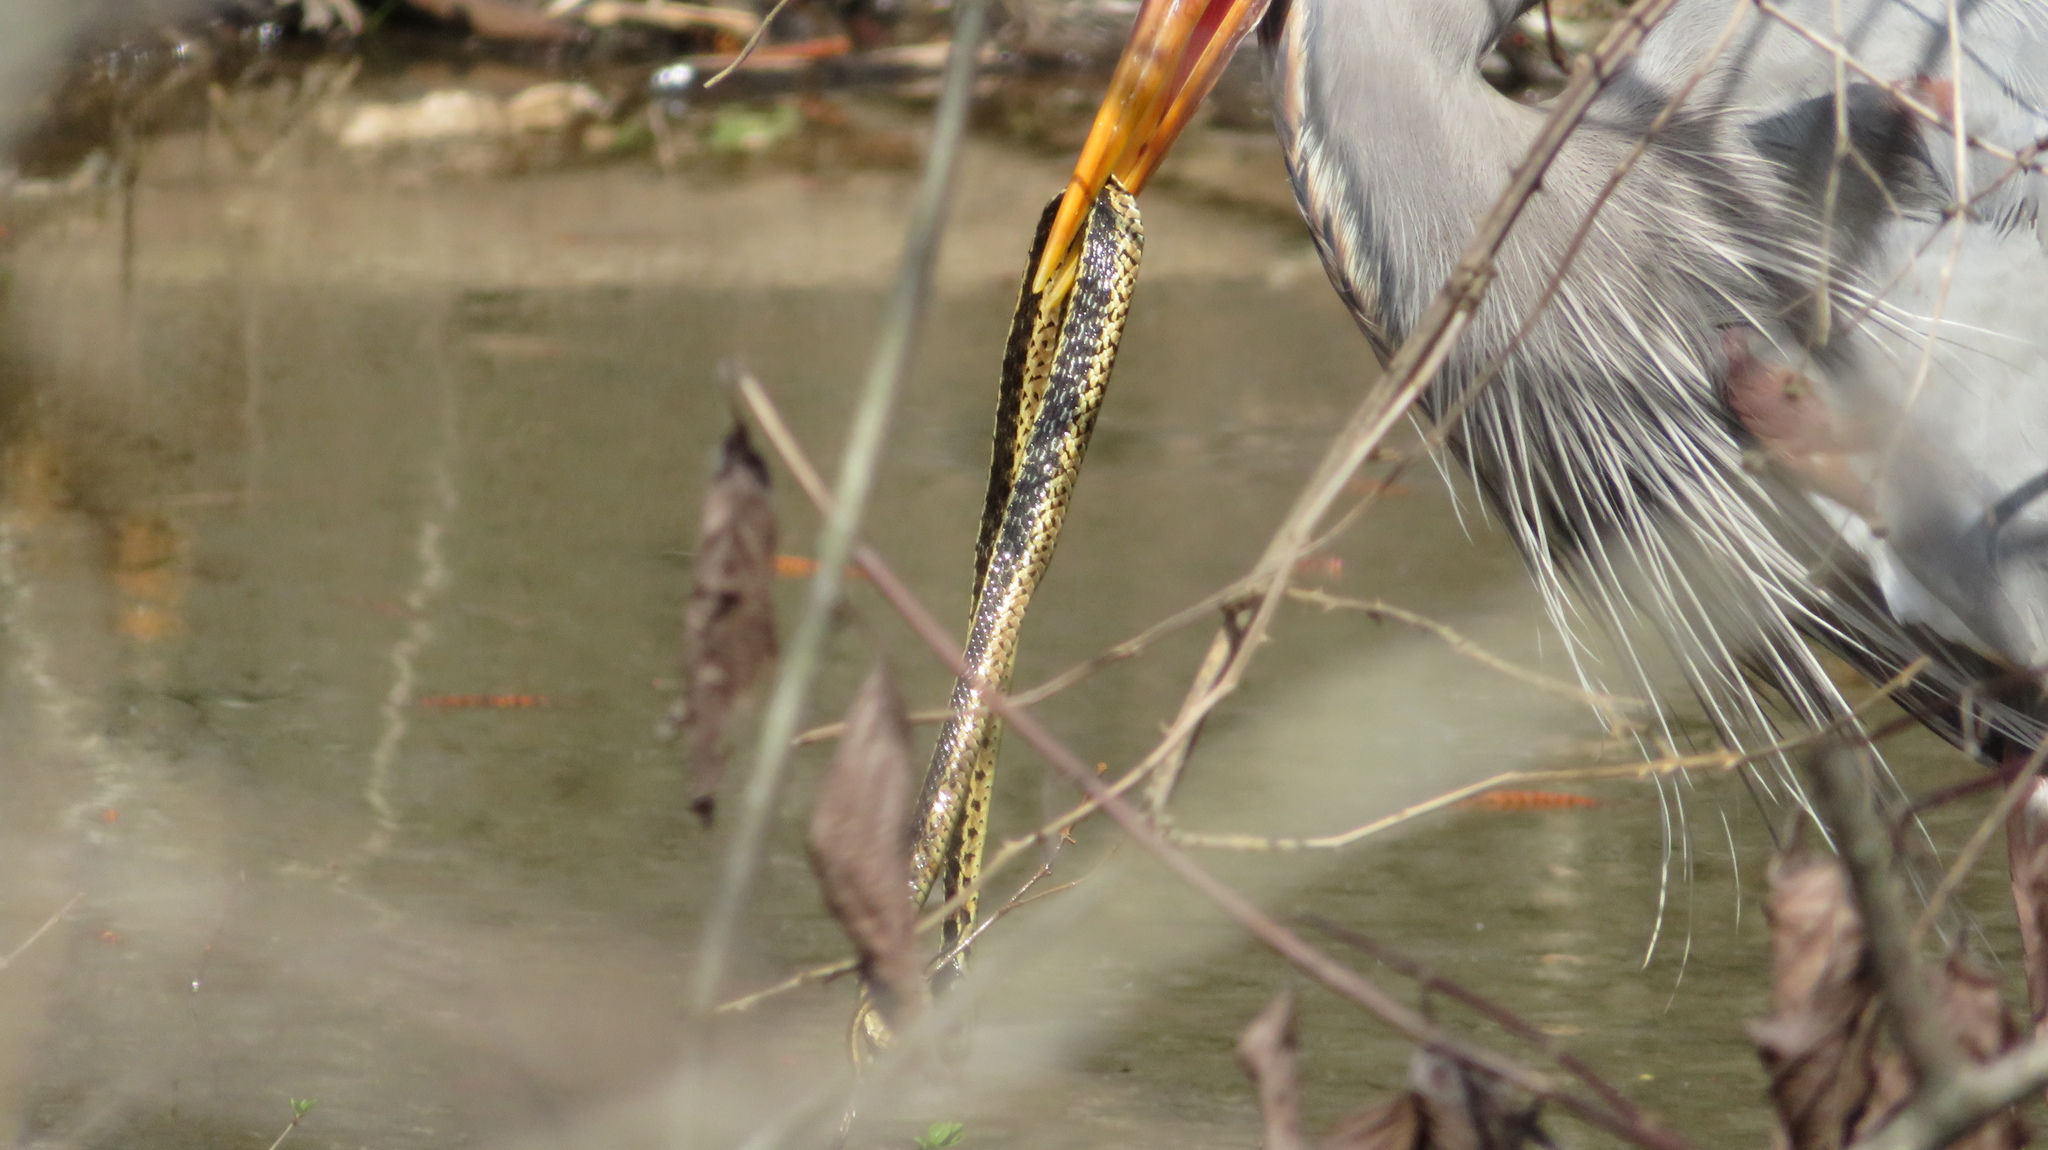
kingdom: Animalia
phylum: Chordata
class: Squamata
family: Colubridae
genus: Thamnophis
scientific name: Thamnophis sirtalis
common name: Common garter snake
